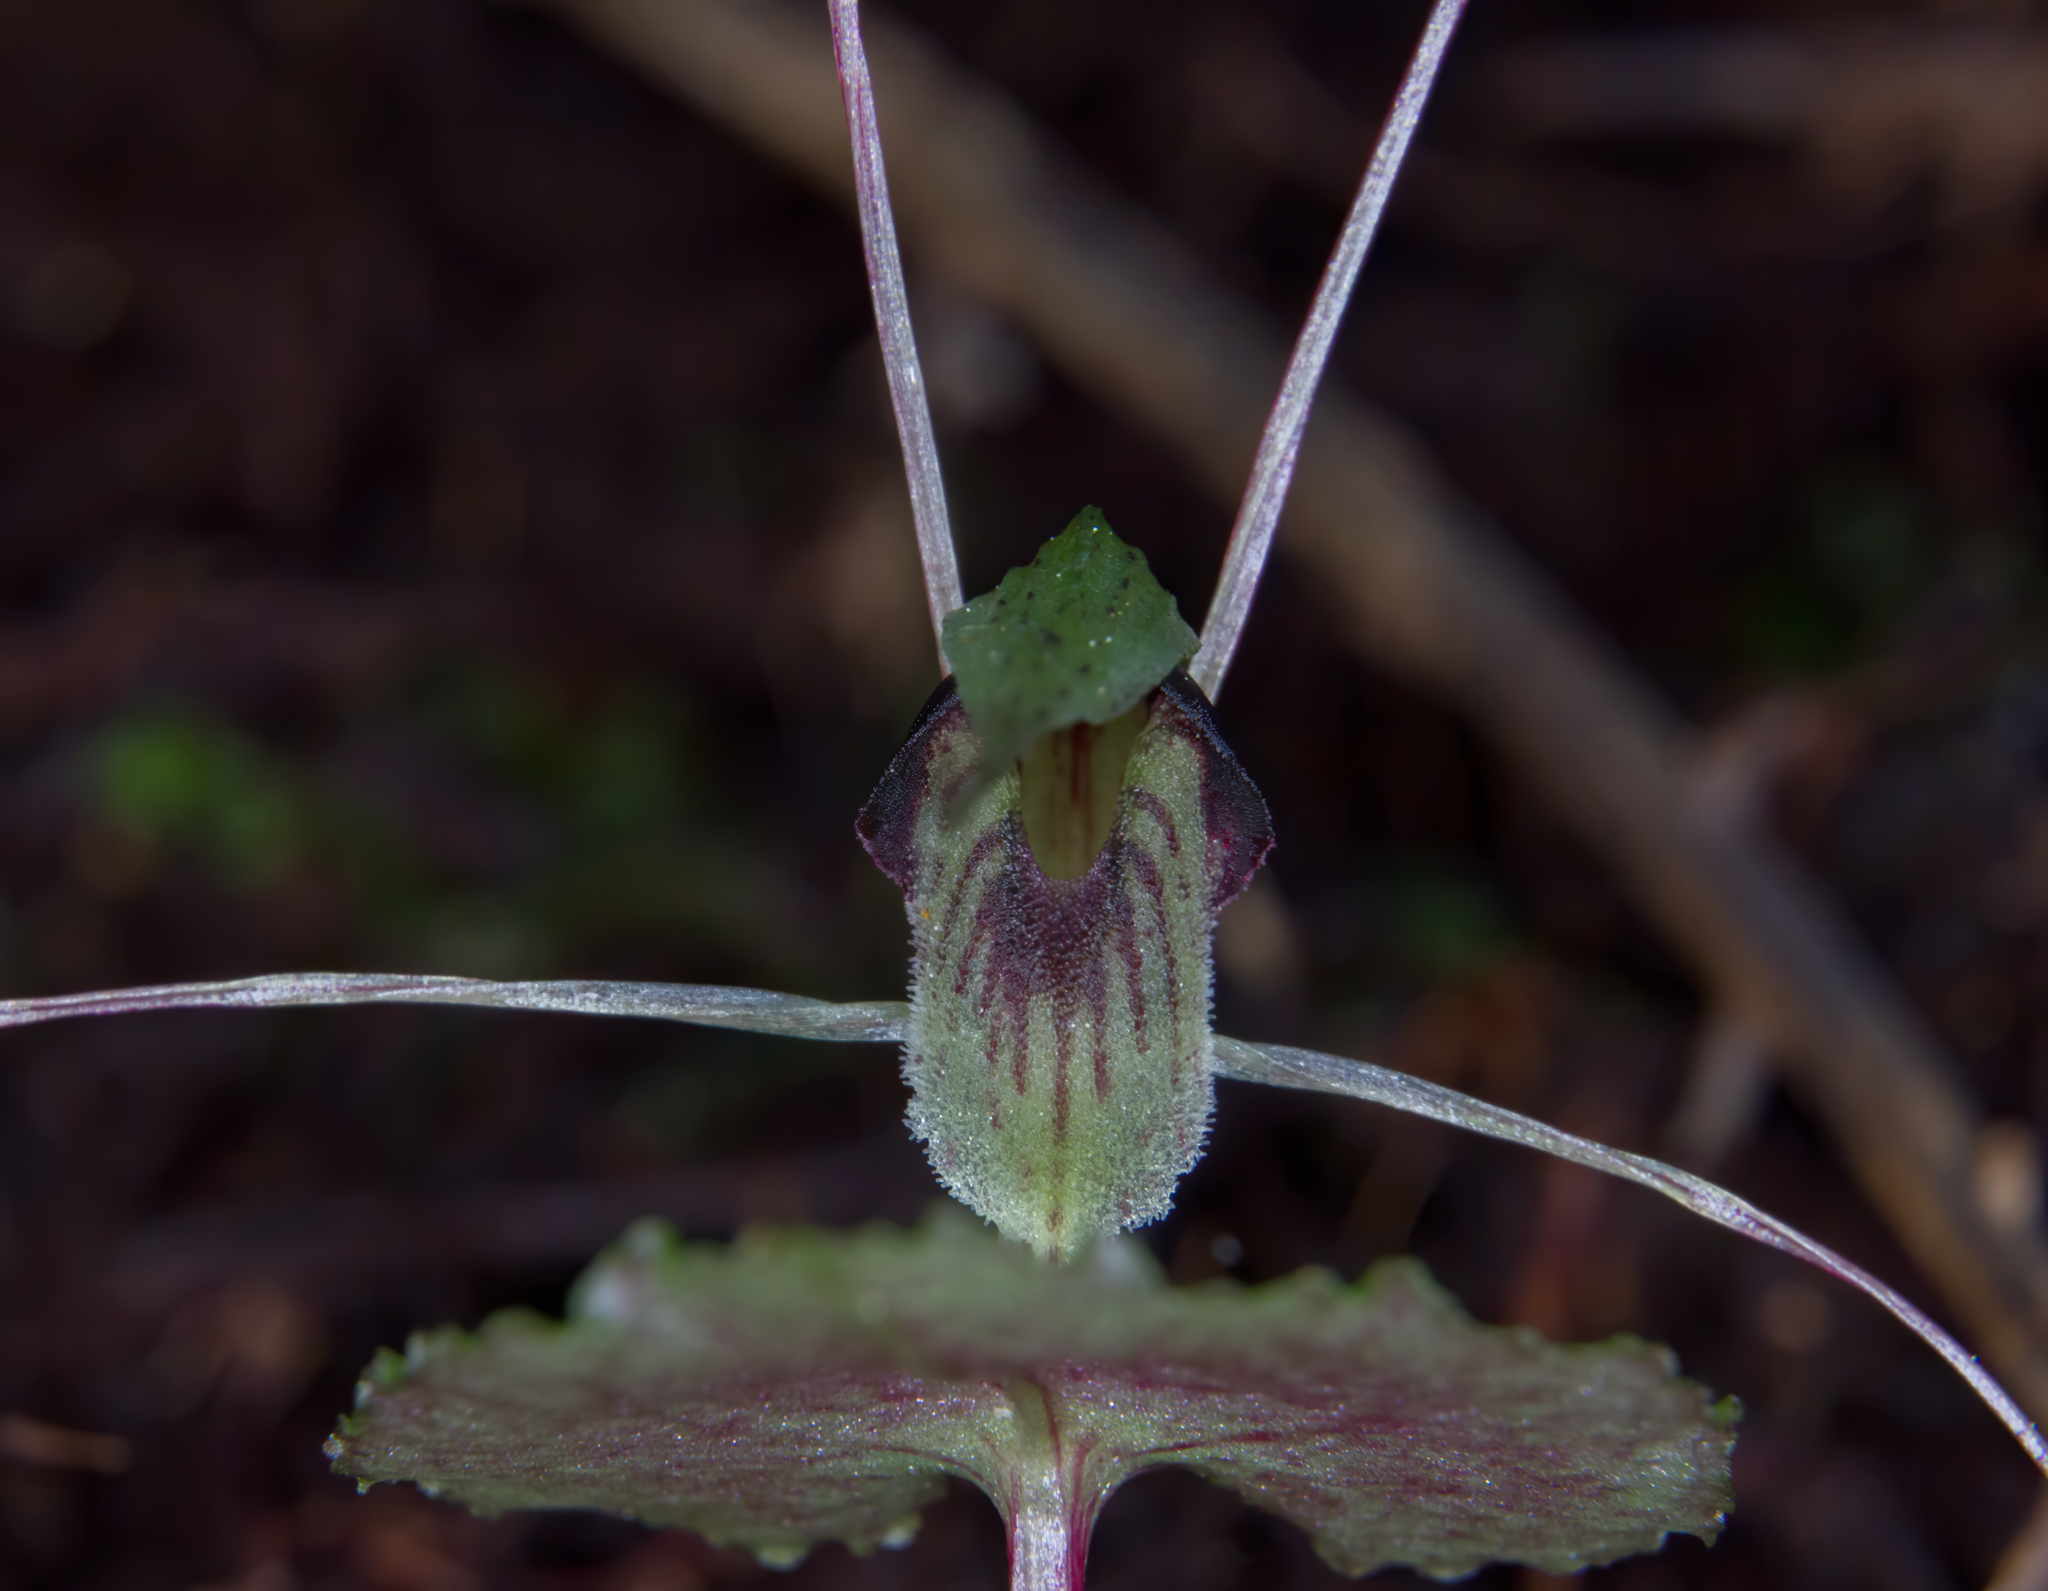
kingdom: Plantae
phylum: Tracheophyta
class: Liliopsida
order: Asparagales
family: Orchidaceae
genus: Corybas
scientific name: Corybas acuminatus
